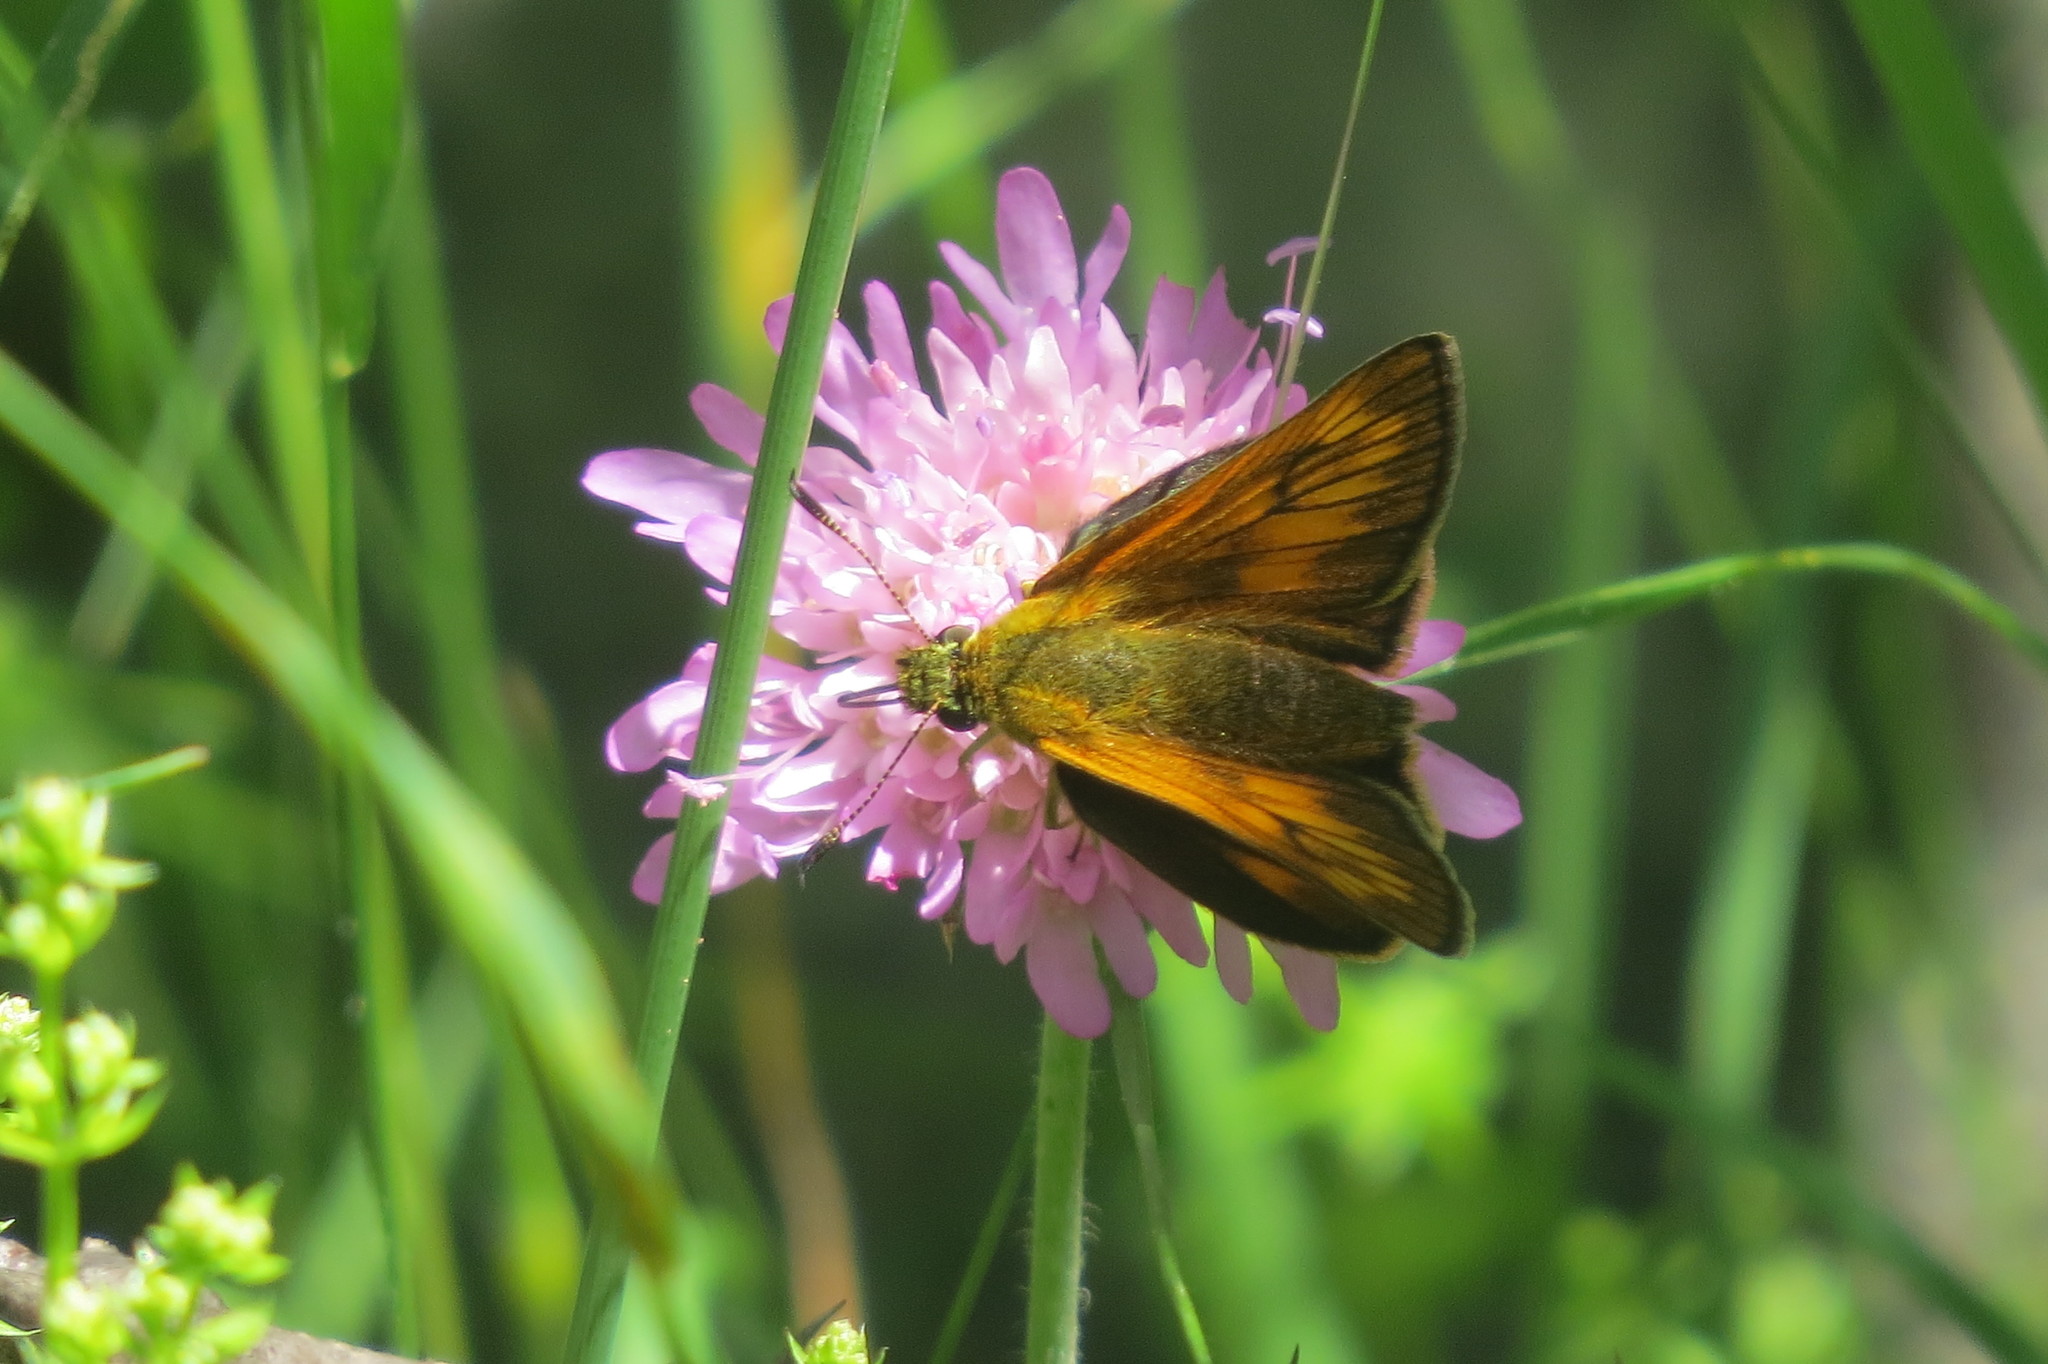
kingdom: Animalia
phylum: Arthropoda
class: Insecta
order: Lepidoptera
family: Hesperiidae
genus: Ochlodes
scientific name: Ochlodes venata
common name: Large skipper
